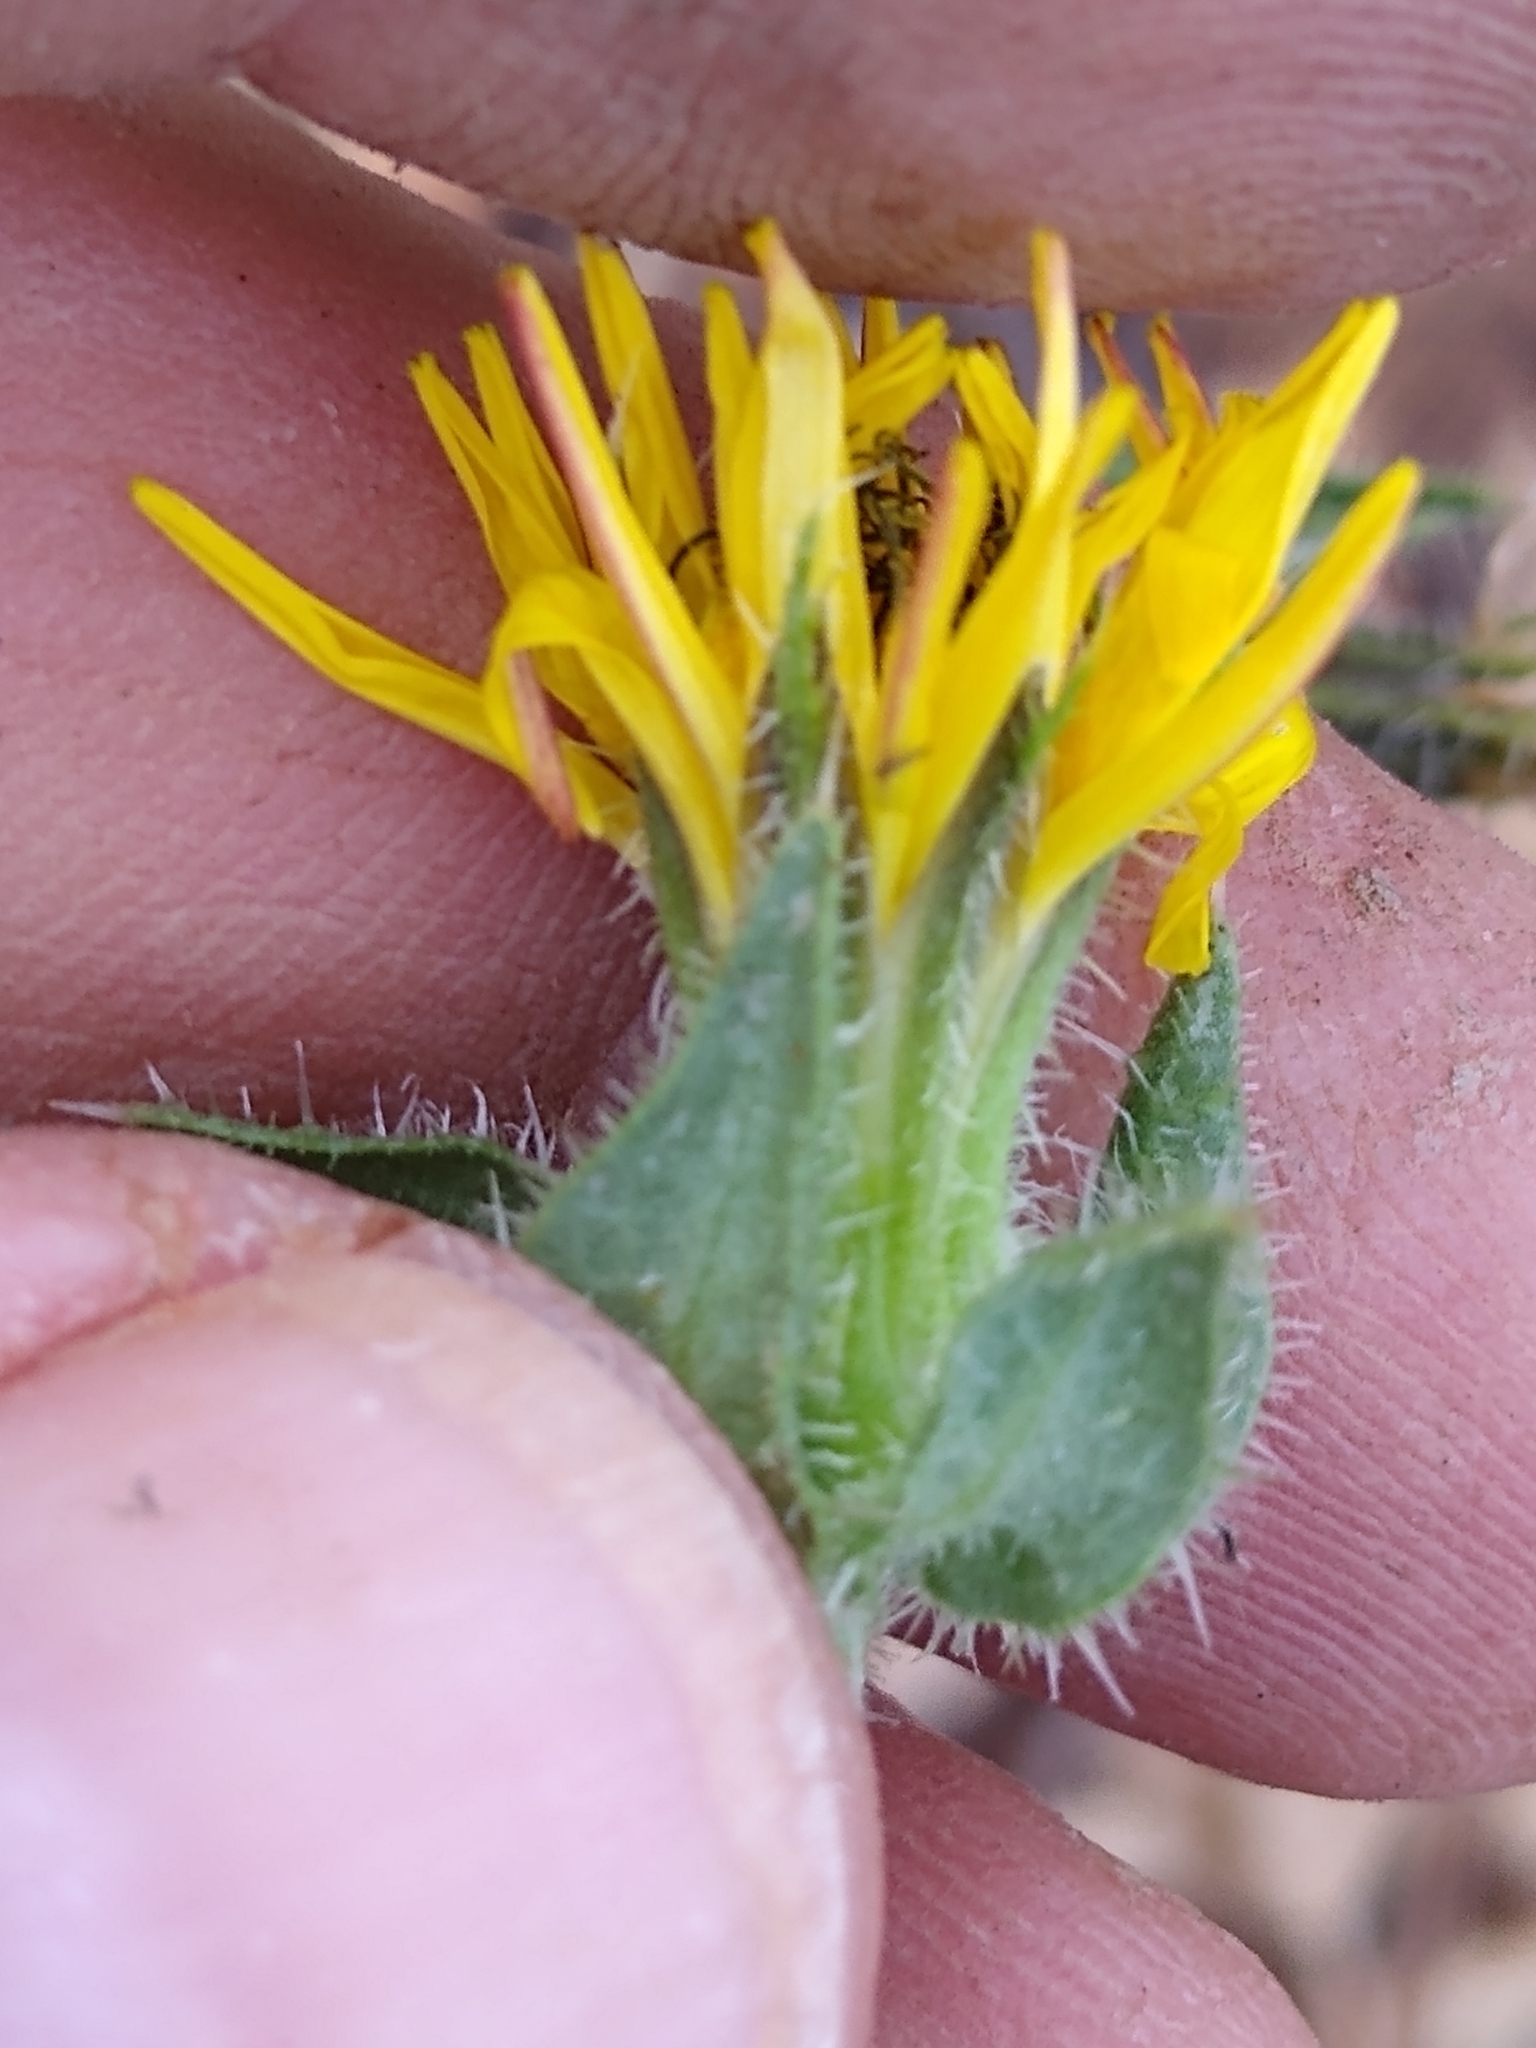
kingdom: Plantae
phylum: Tracheophyta
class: Magnoliopsida
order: Asterales
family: Asteraceae
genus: Helminthotheca
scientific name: Helminthotheca echioides
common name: Ox-tongue
